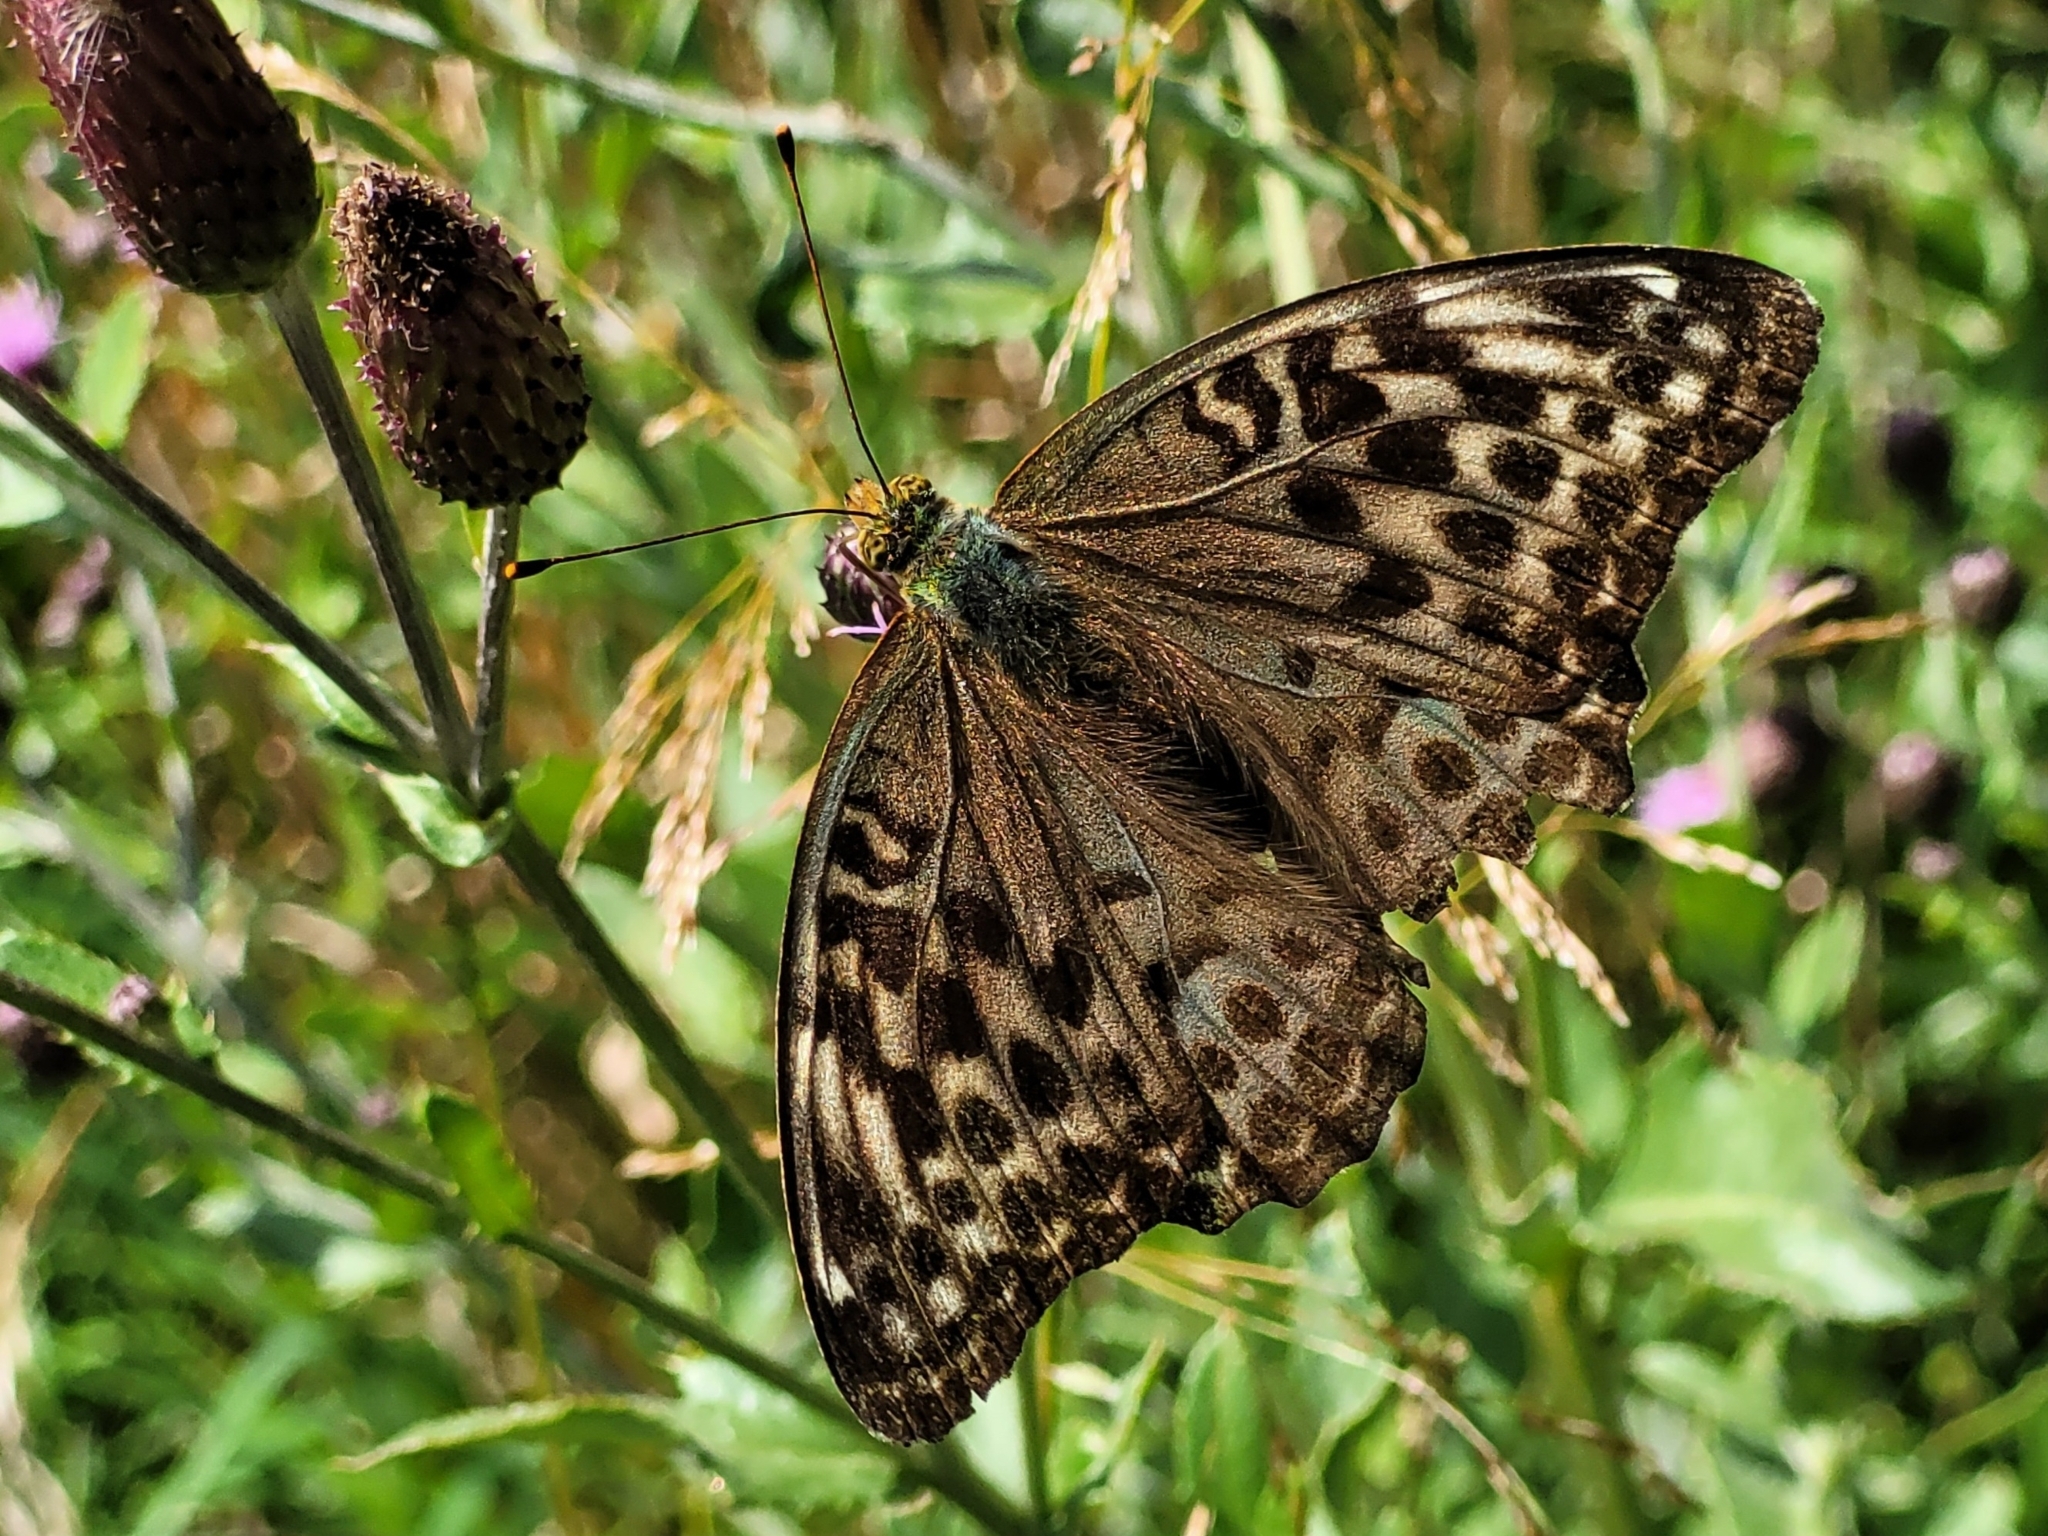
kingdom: Animalia
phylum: Arthropoda
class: Insecta
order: Lepidoptera
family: Nymphalidae
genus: Argynnis
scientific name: Argynnis paphia
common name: Silver-washed fritillary
